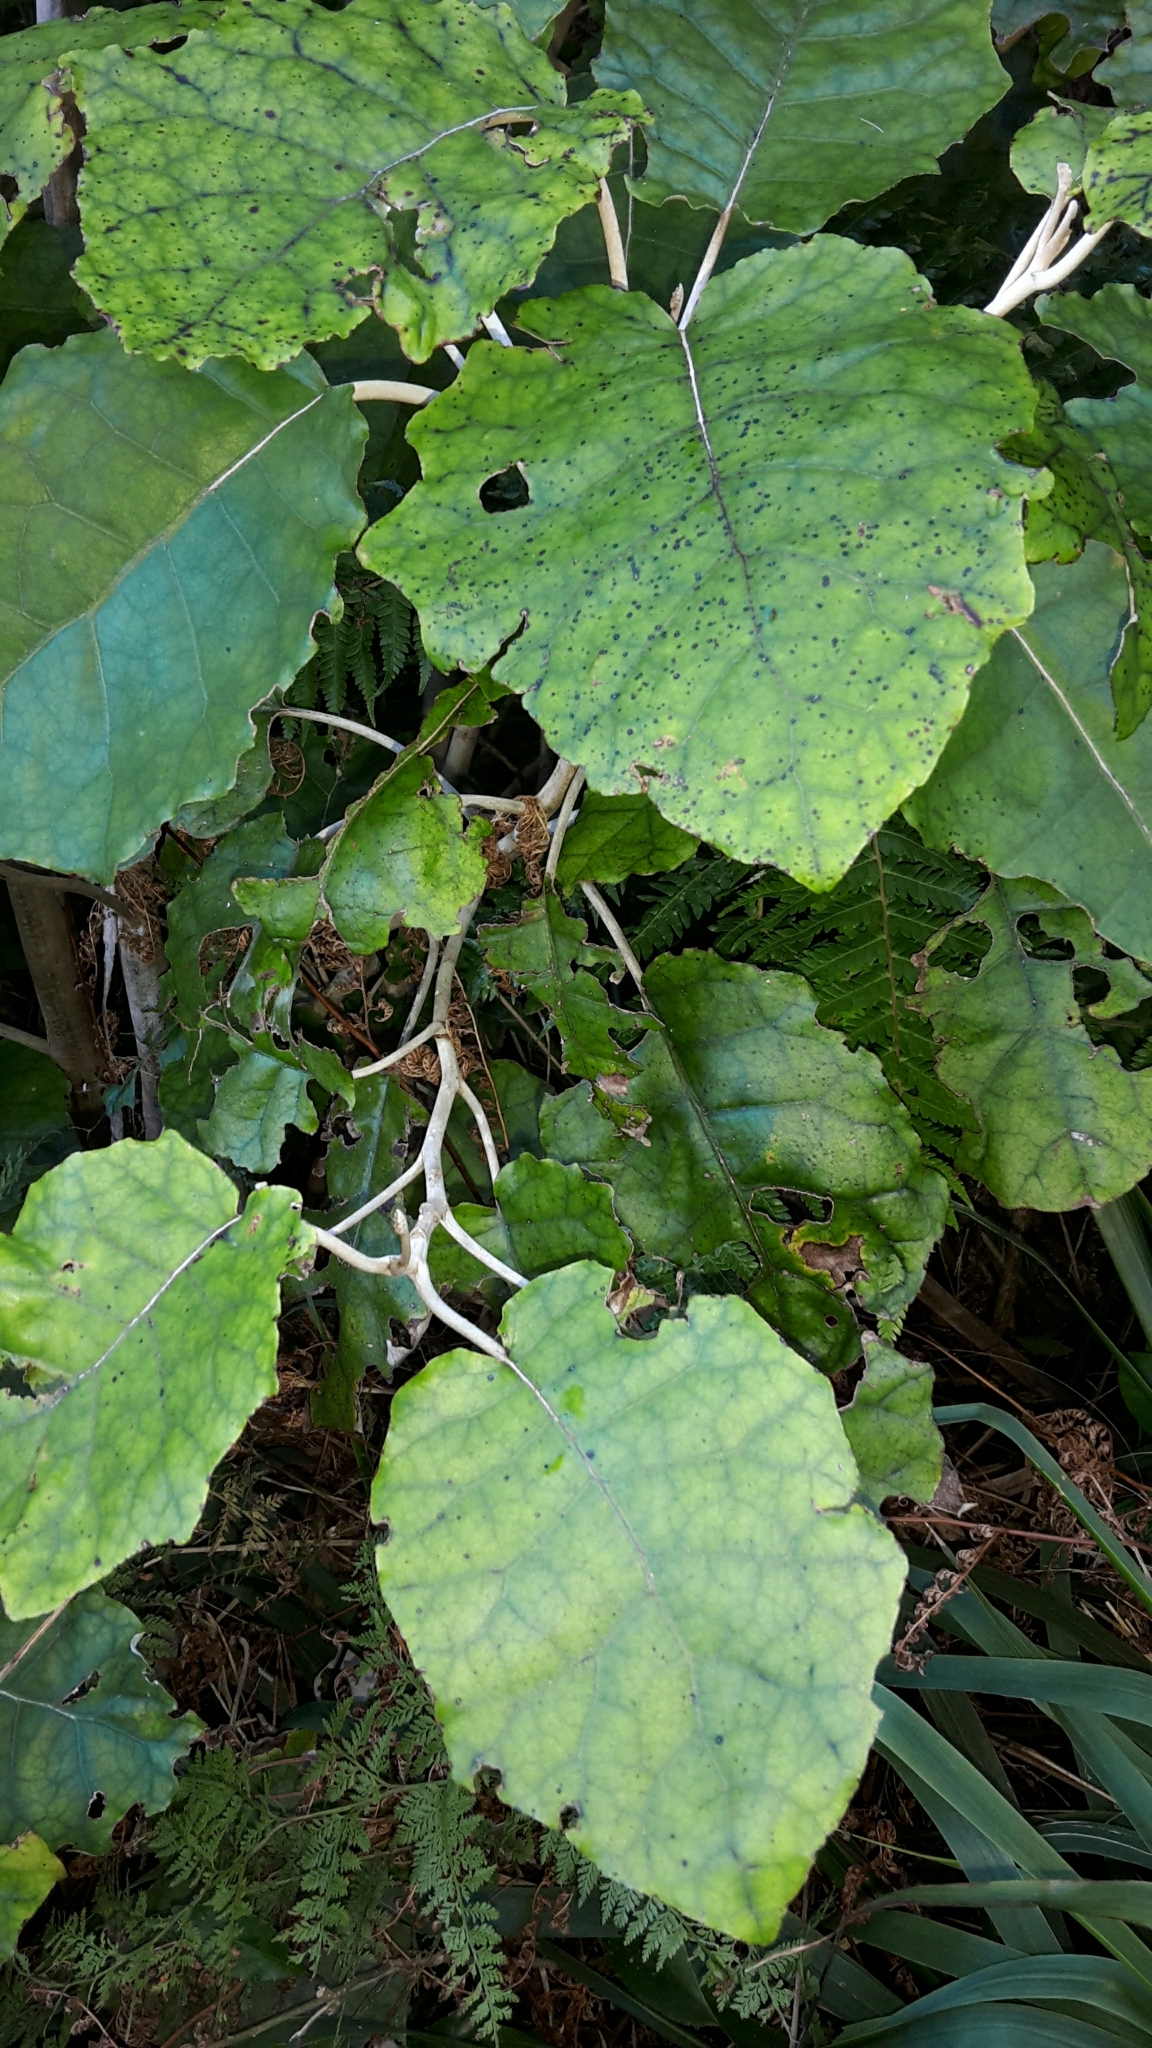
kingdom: Plantae
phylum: Tracheophyta
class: Magnoliopsida
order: Asterales
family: Asteraceae
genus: Brachyglottis
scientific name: Brachyglottis repanda
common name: Hedge ragwort
